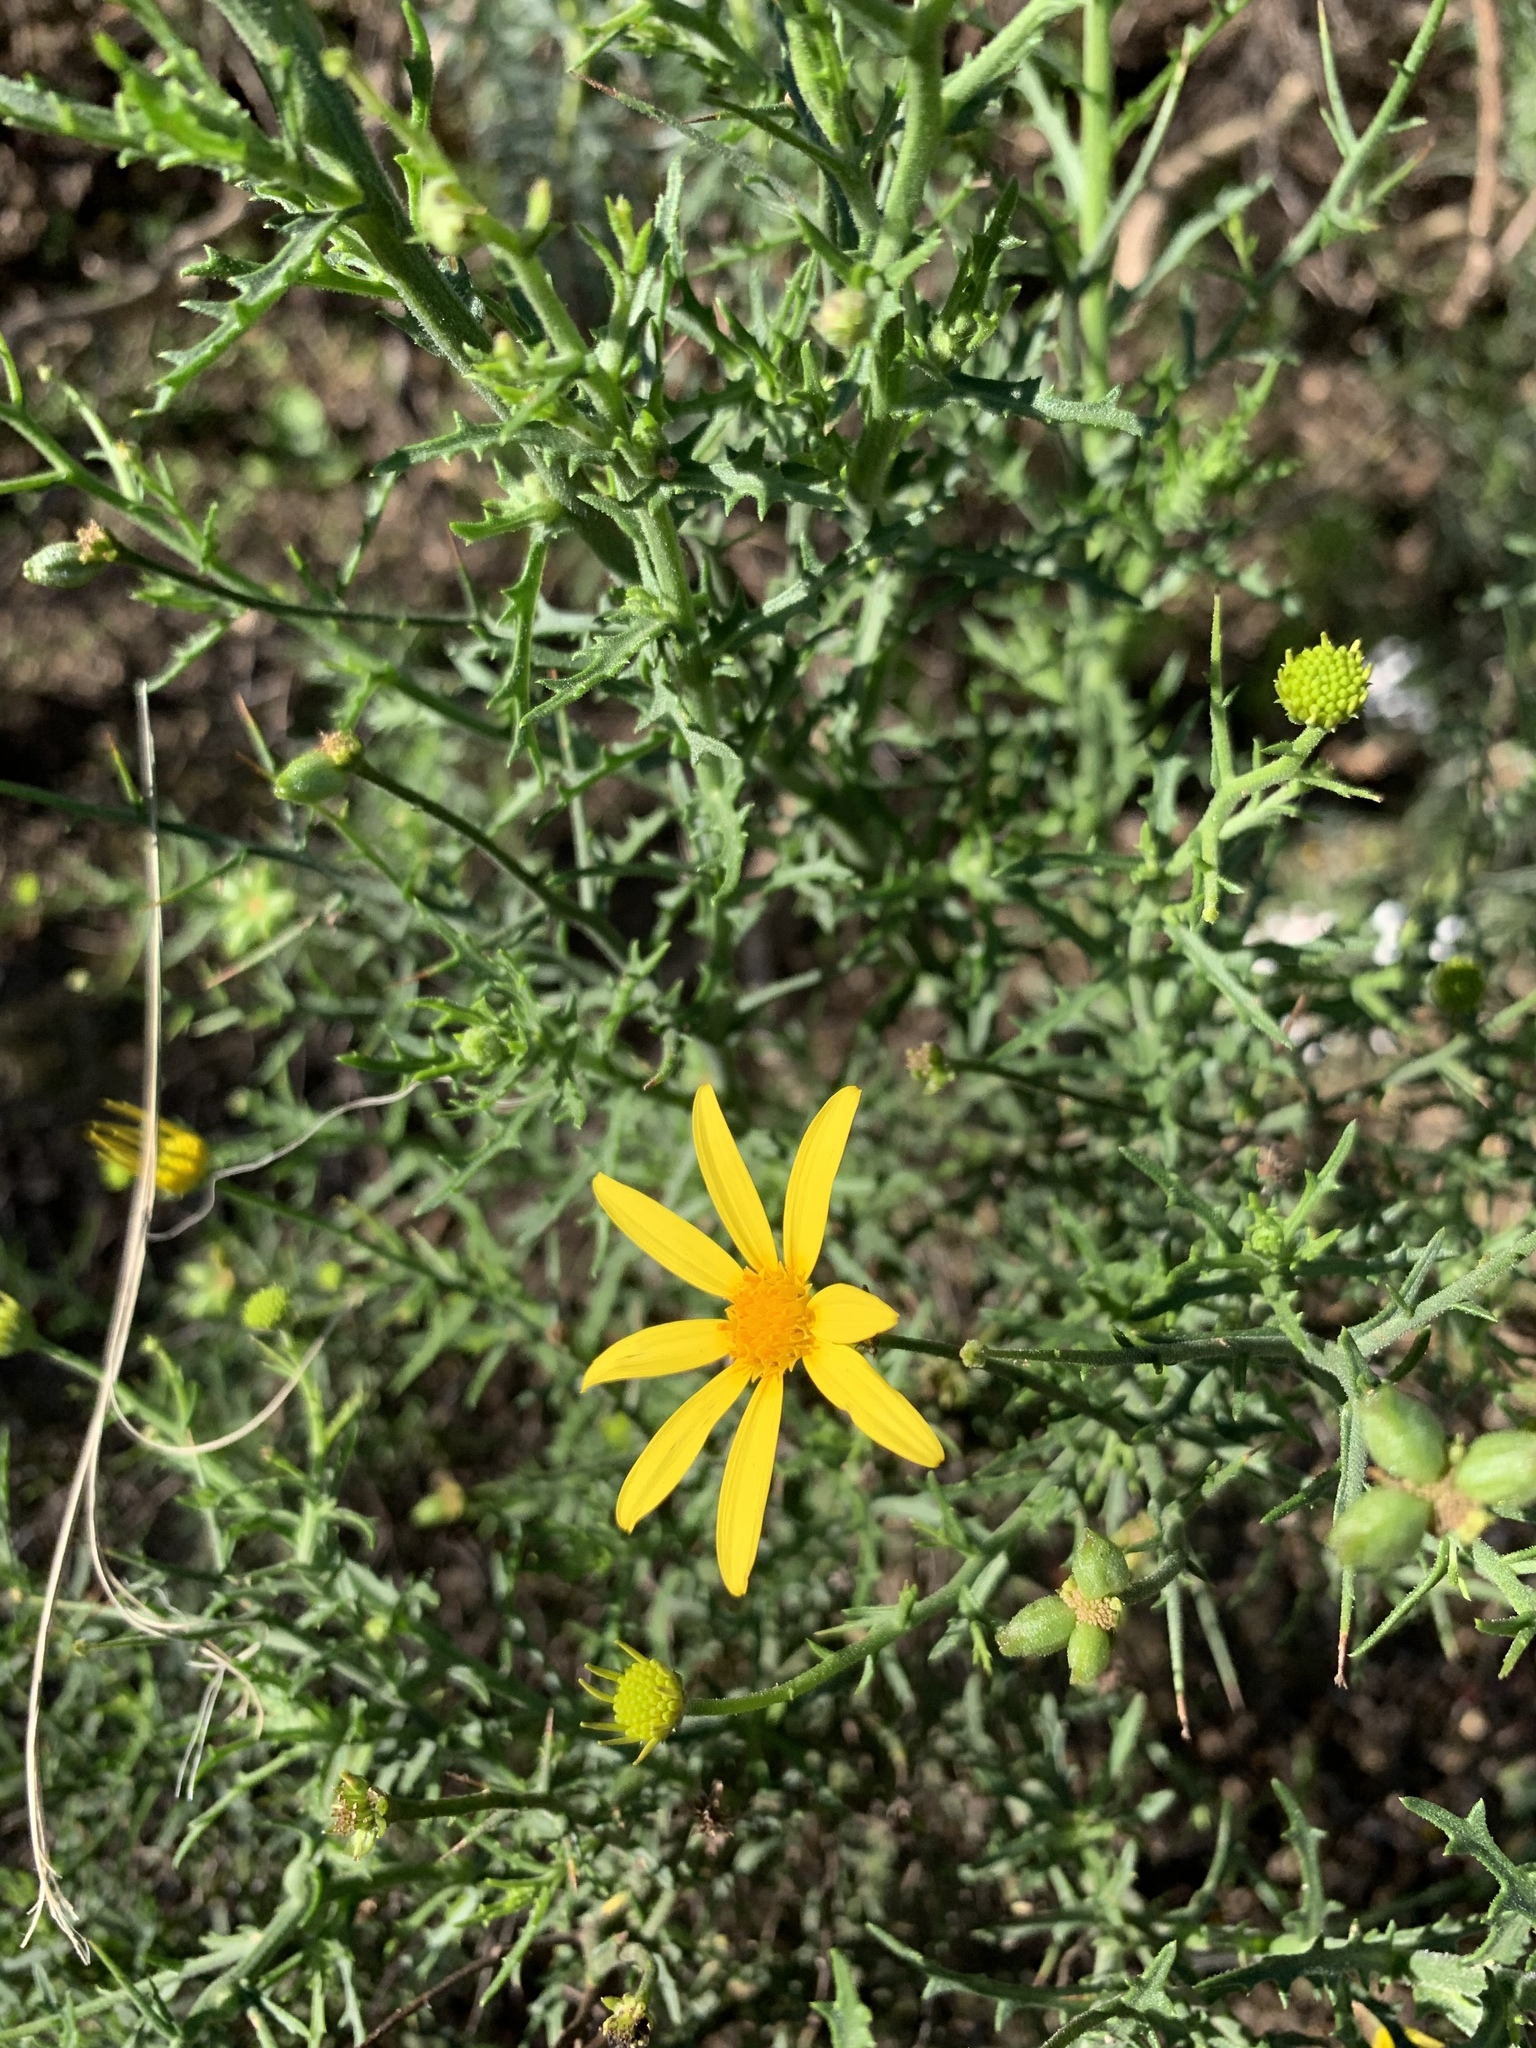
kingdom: Plantae
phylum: Tracheophyta
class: Magnoliopsida
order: Asterales
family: Asteraceae
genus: Osteospermum
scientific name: Osteospermum spinosum
